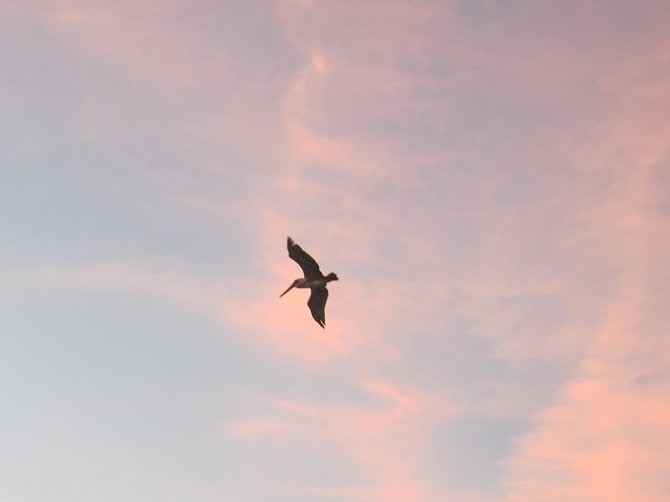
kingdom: Animalia
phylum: Chordata
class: Aves
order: Pelecaniformes
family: Pelecanidae
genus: Pelecanus
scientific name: Pelecanus occidentalis
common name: Brown pelican
